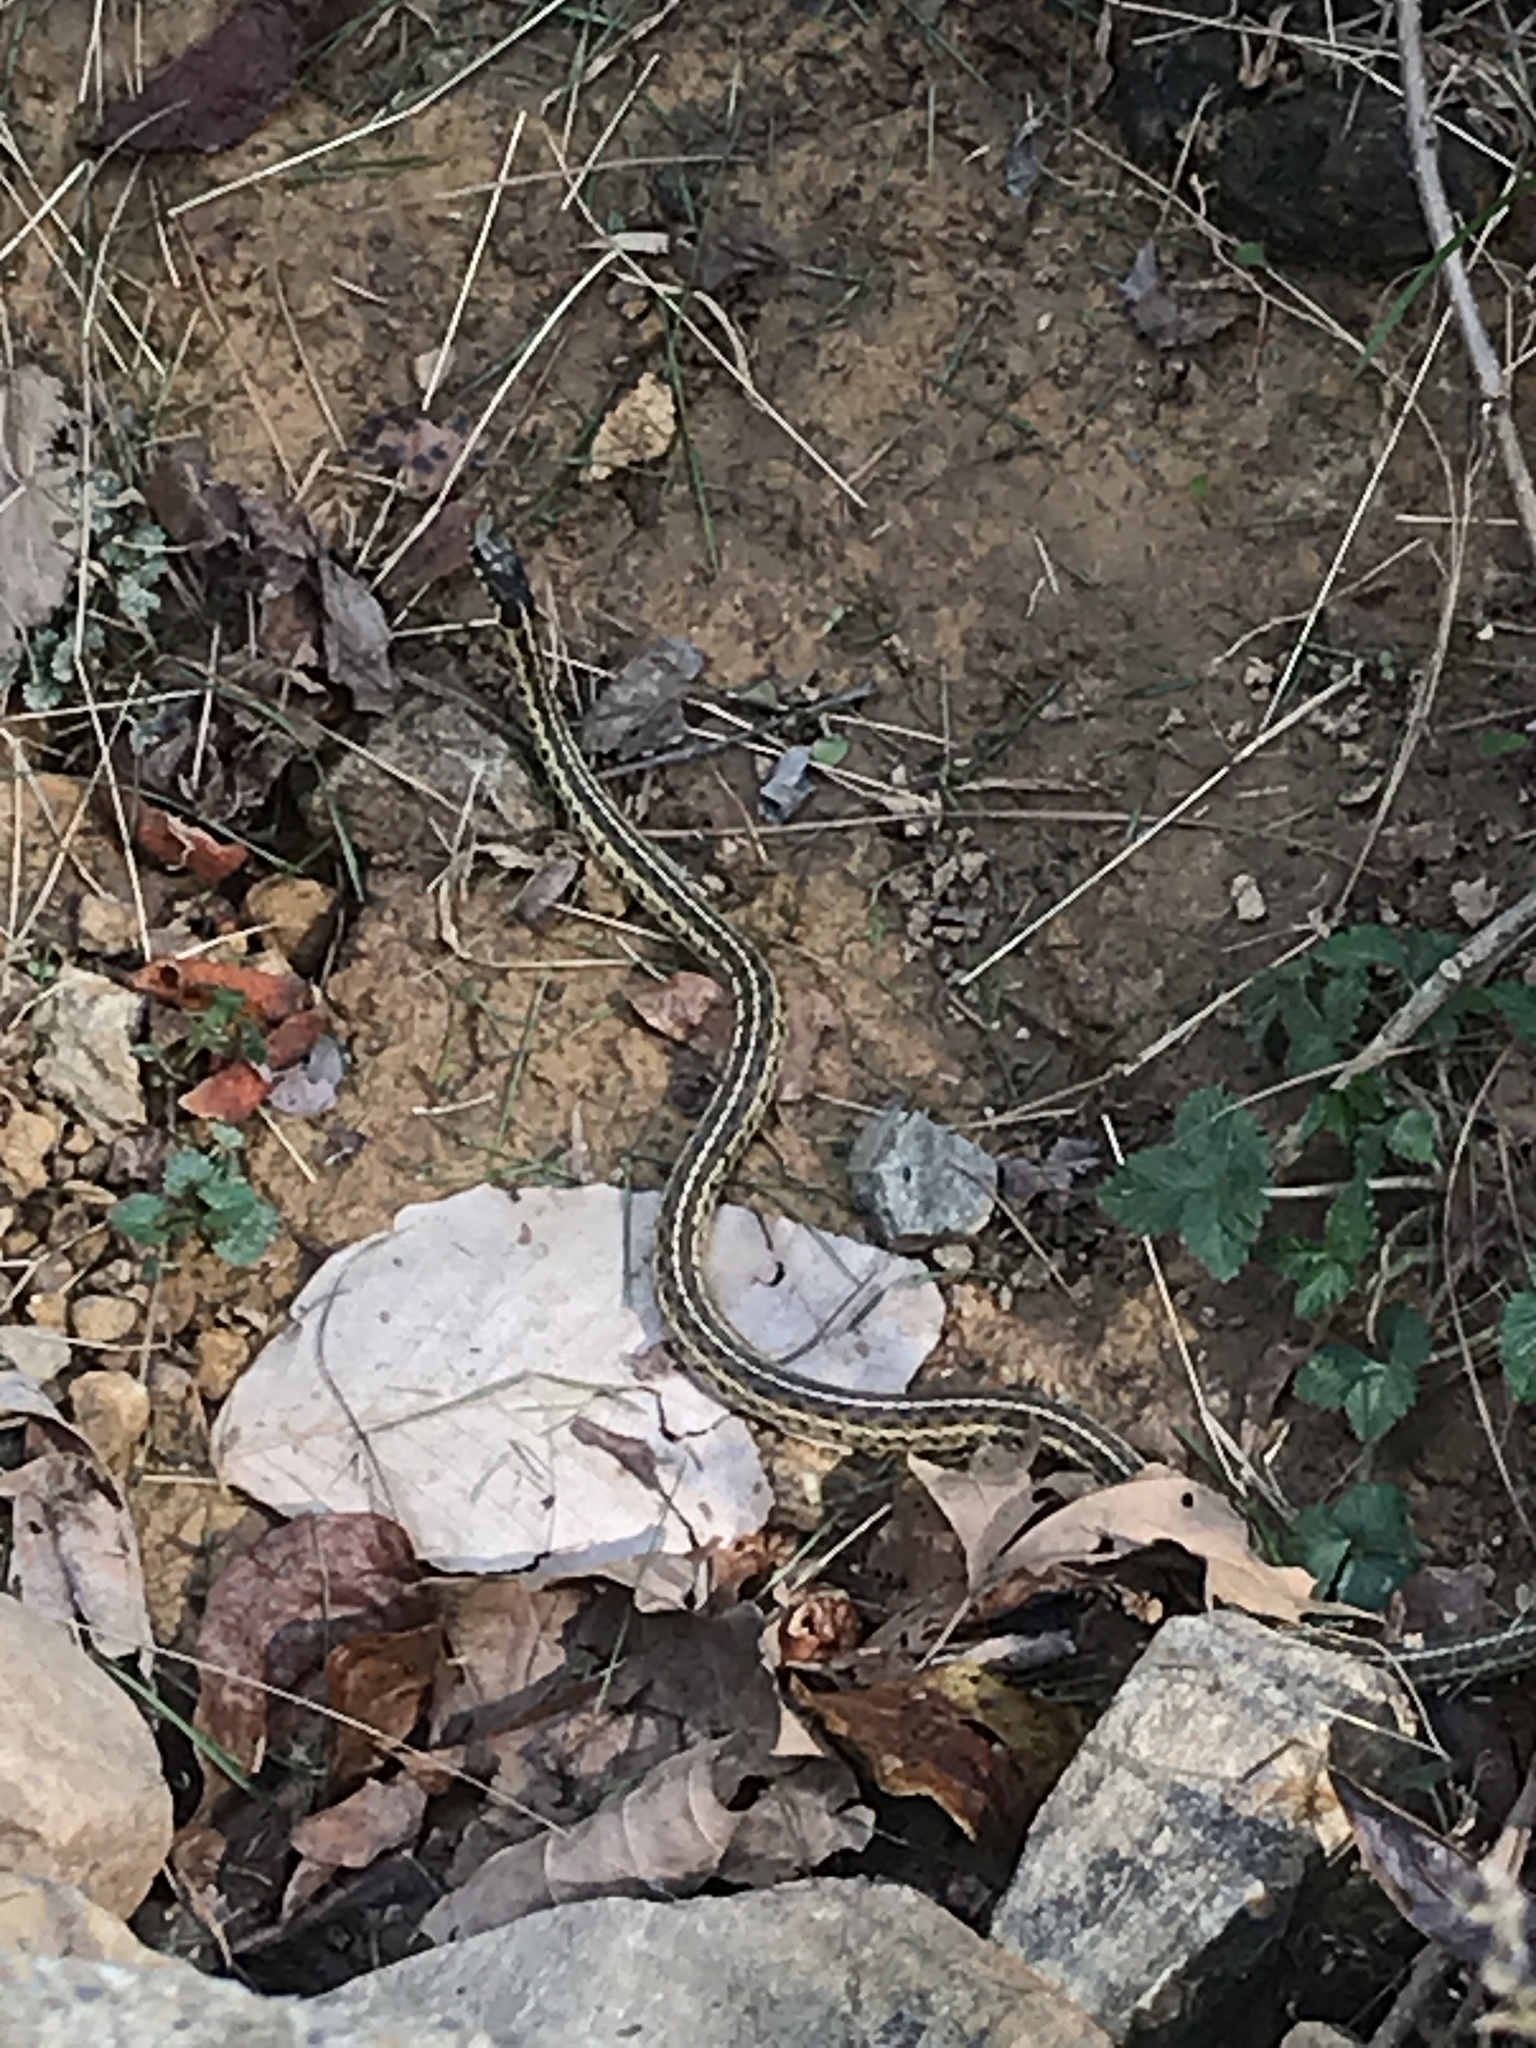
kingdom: Animalia
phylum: Chordata
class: Squamata
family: Colubridae
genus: Thamnophis
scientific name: Thamnophis sirtalis
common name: Common garter snake
